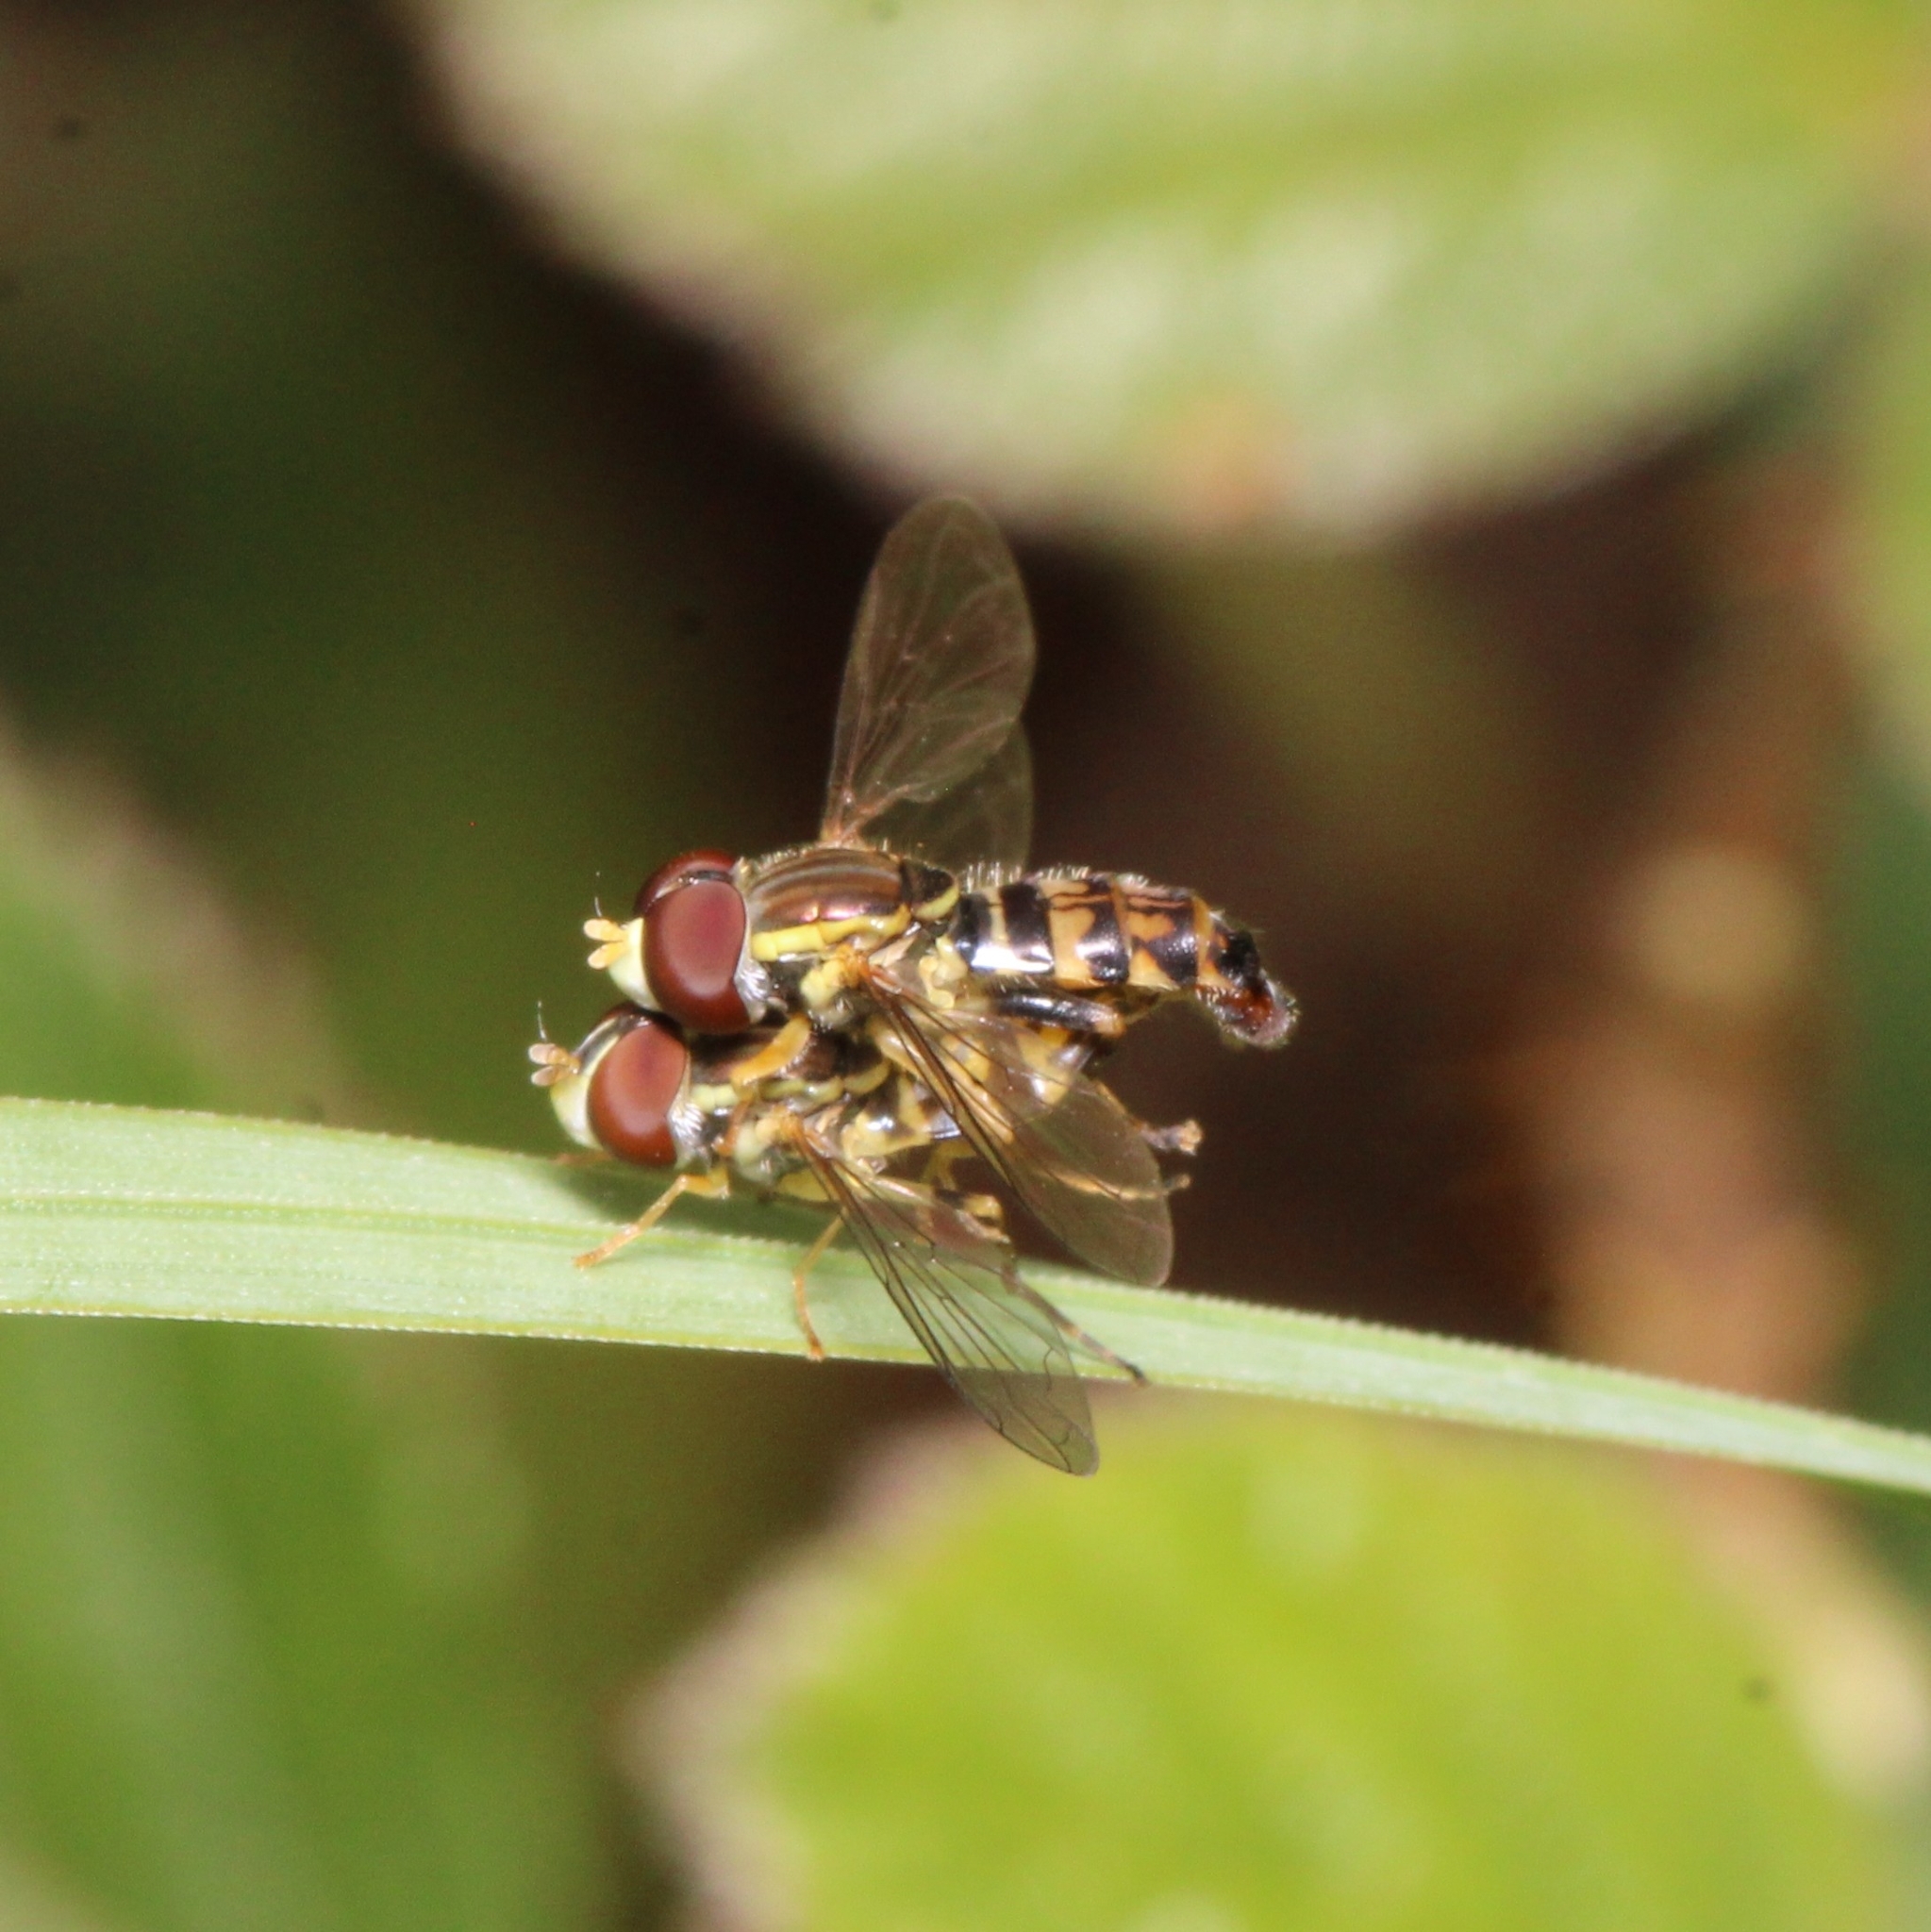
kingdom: Animalia
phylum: Arthropoda
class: Insecta
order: Diptera
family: Syrphidae
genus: Toxomerus
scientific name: Toxomerus geminatus
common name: Eastern calligrapher
